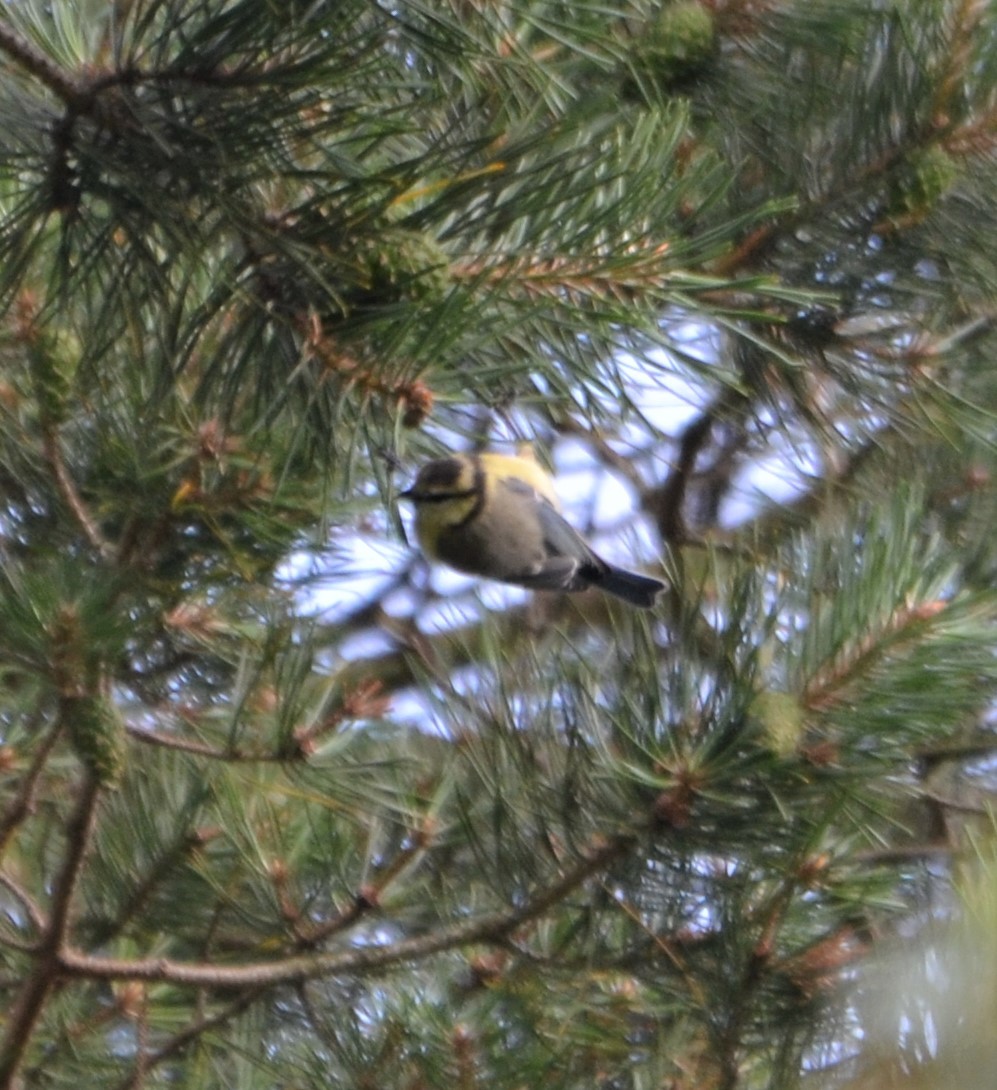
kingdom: Animalia
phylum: Chordata
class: Aves
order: Passeriformes
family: Paridae
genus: Cyanistes
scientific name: Cyanistes caeruleus
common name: Eurasian blue tit
